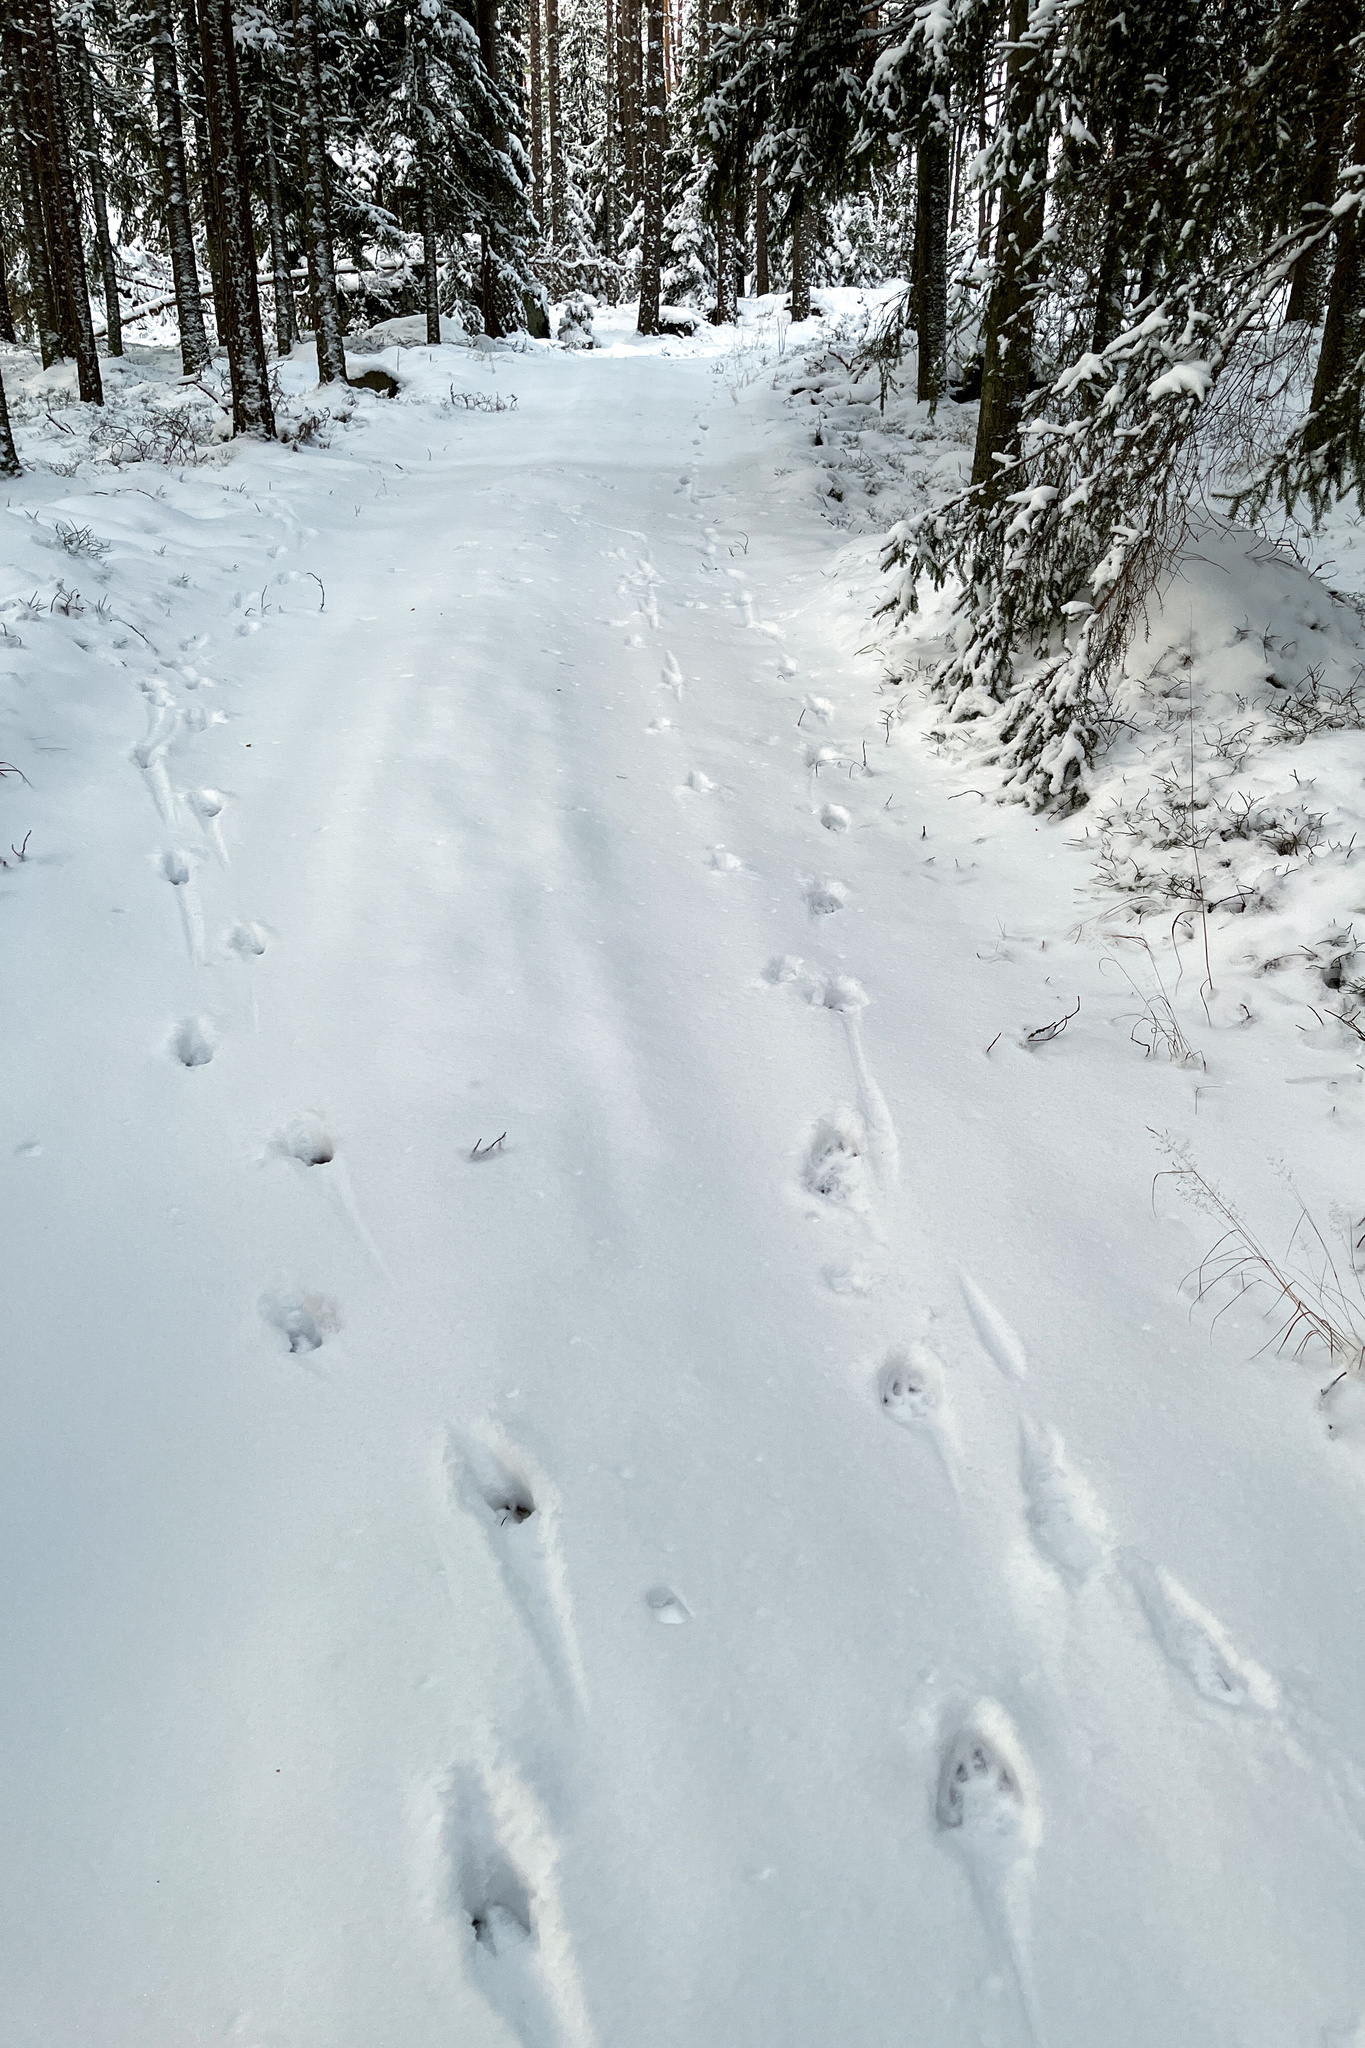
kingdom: Animalia
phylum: Chordata
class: Mammalia
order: Carnivora
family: Felidae
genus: Lynx
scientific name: Lynx lynx
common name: Eurasian lynx
